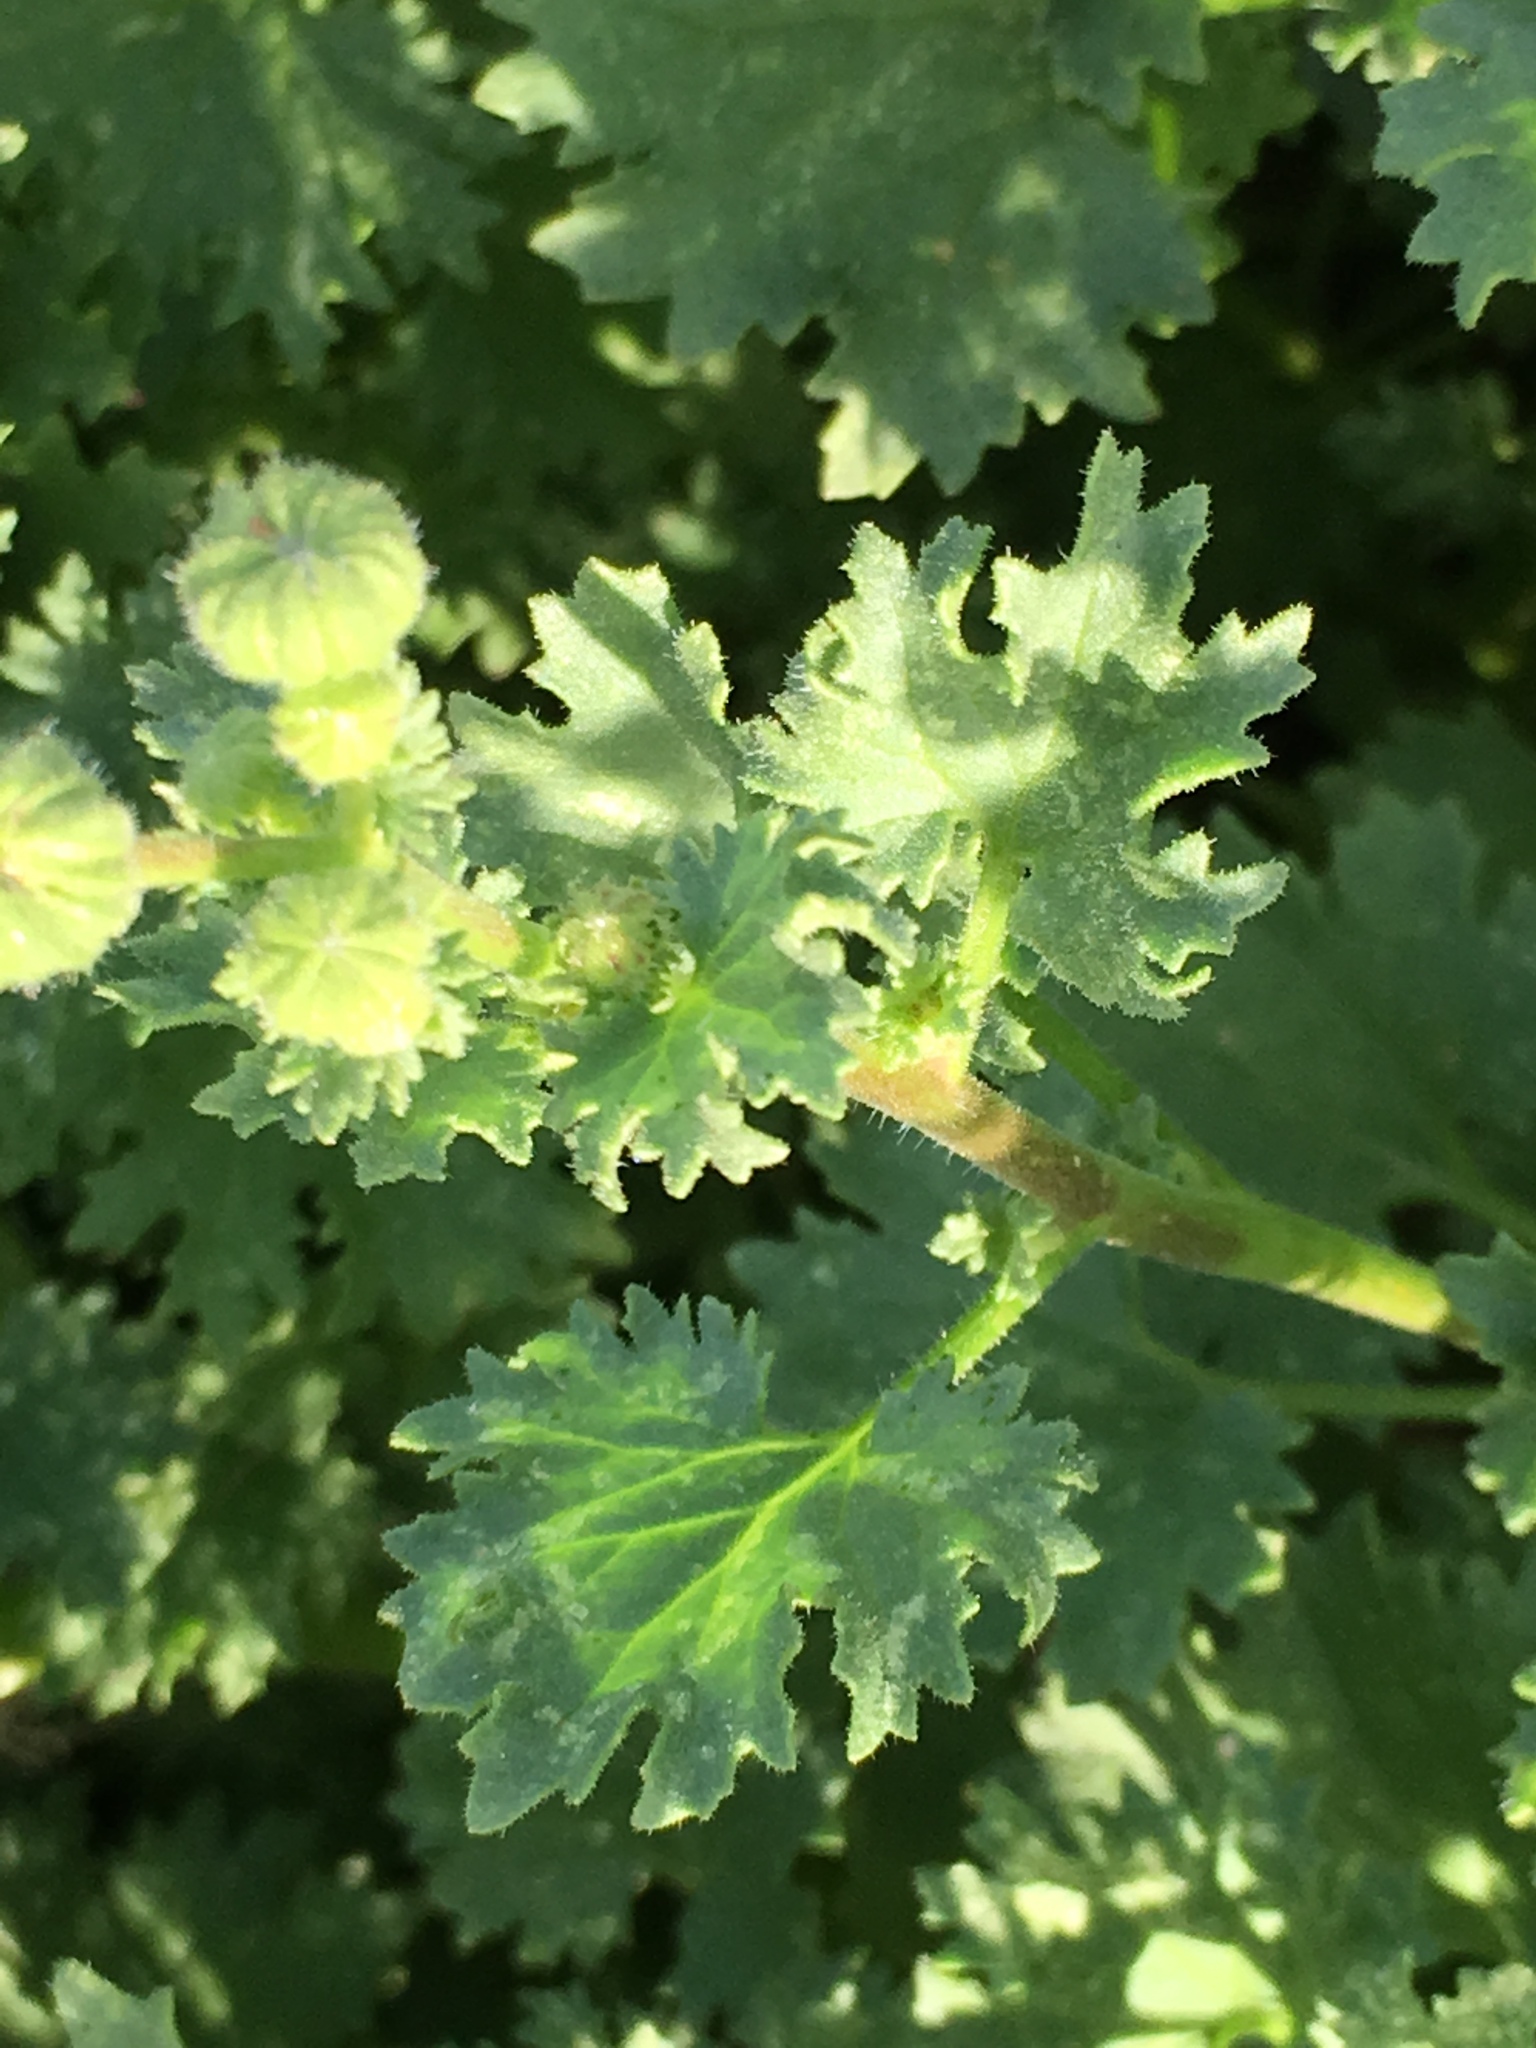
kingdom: Plantae
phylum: Tracheophyta
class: Magnoliopsida
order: Asterales
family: Asteraceae
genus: Laphamia
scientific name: Laphamia emoryi
